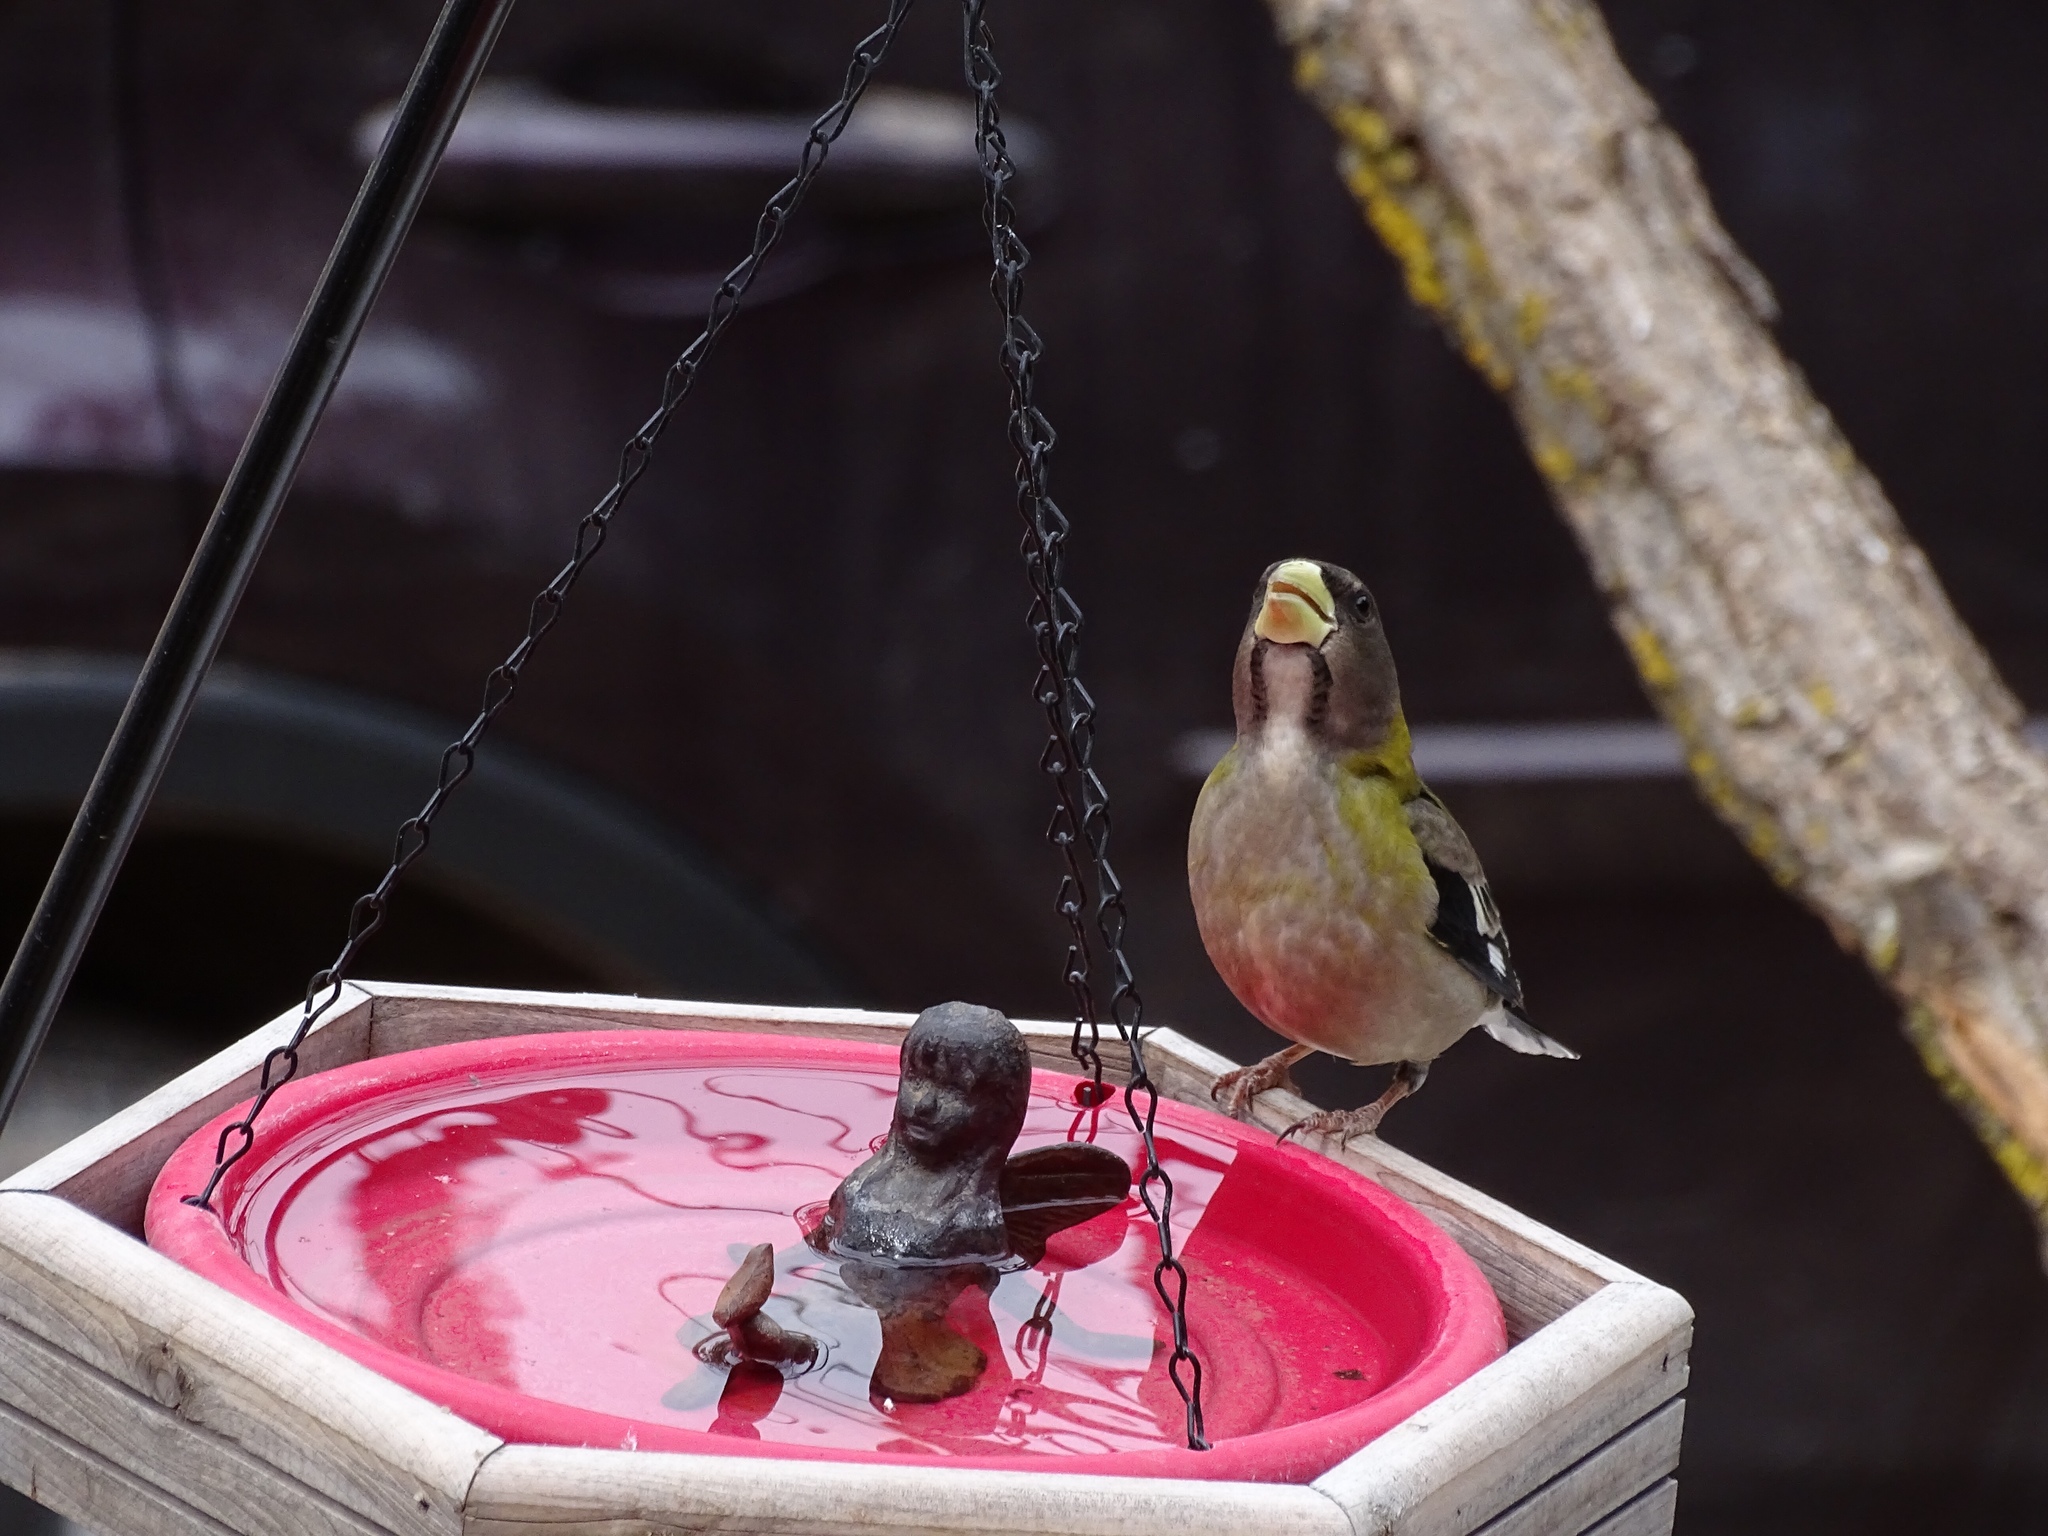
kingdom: Animalia
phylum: Chordata
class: Aves
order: Passeriformes
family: Fringillidae
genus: Hesperiphona
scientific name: Hesperiphona vespertina
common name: Evening grosbeak
